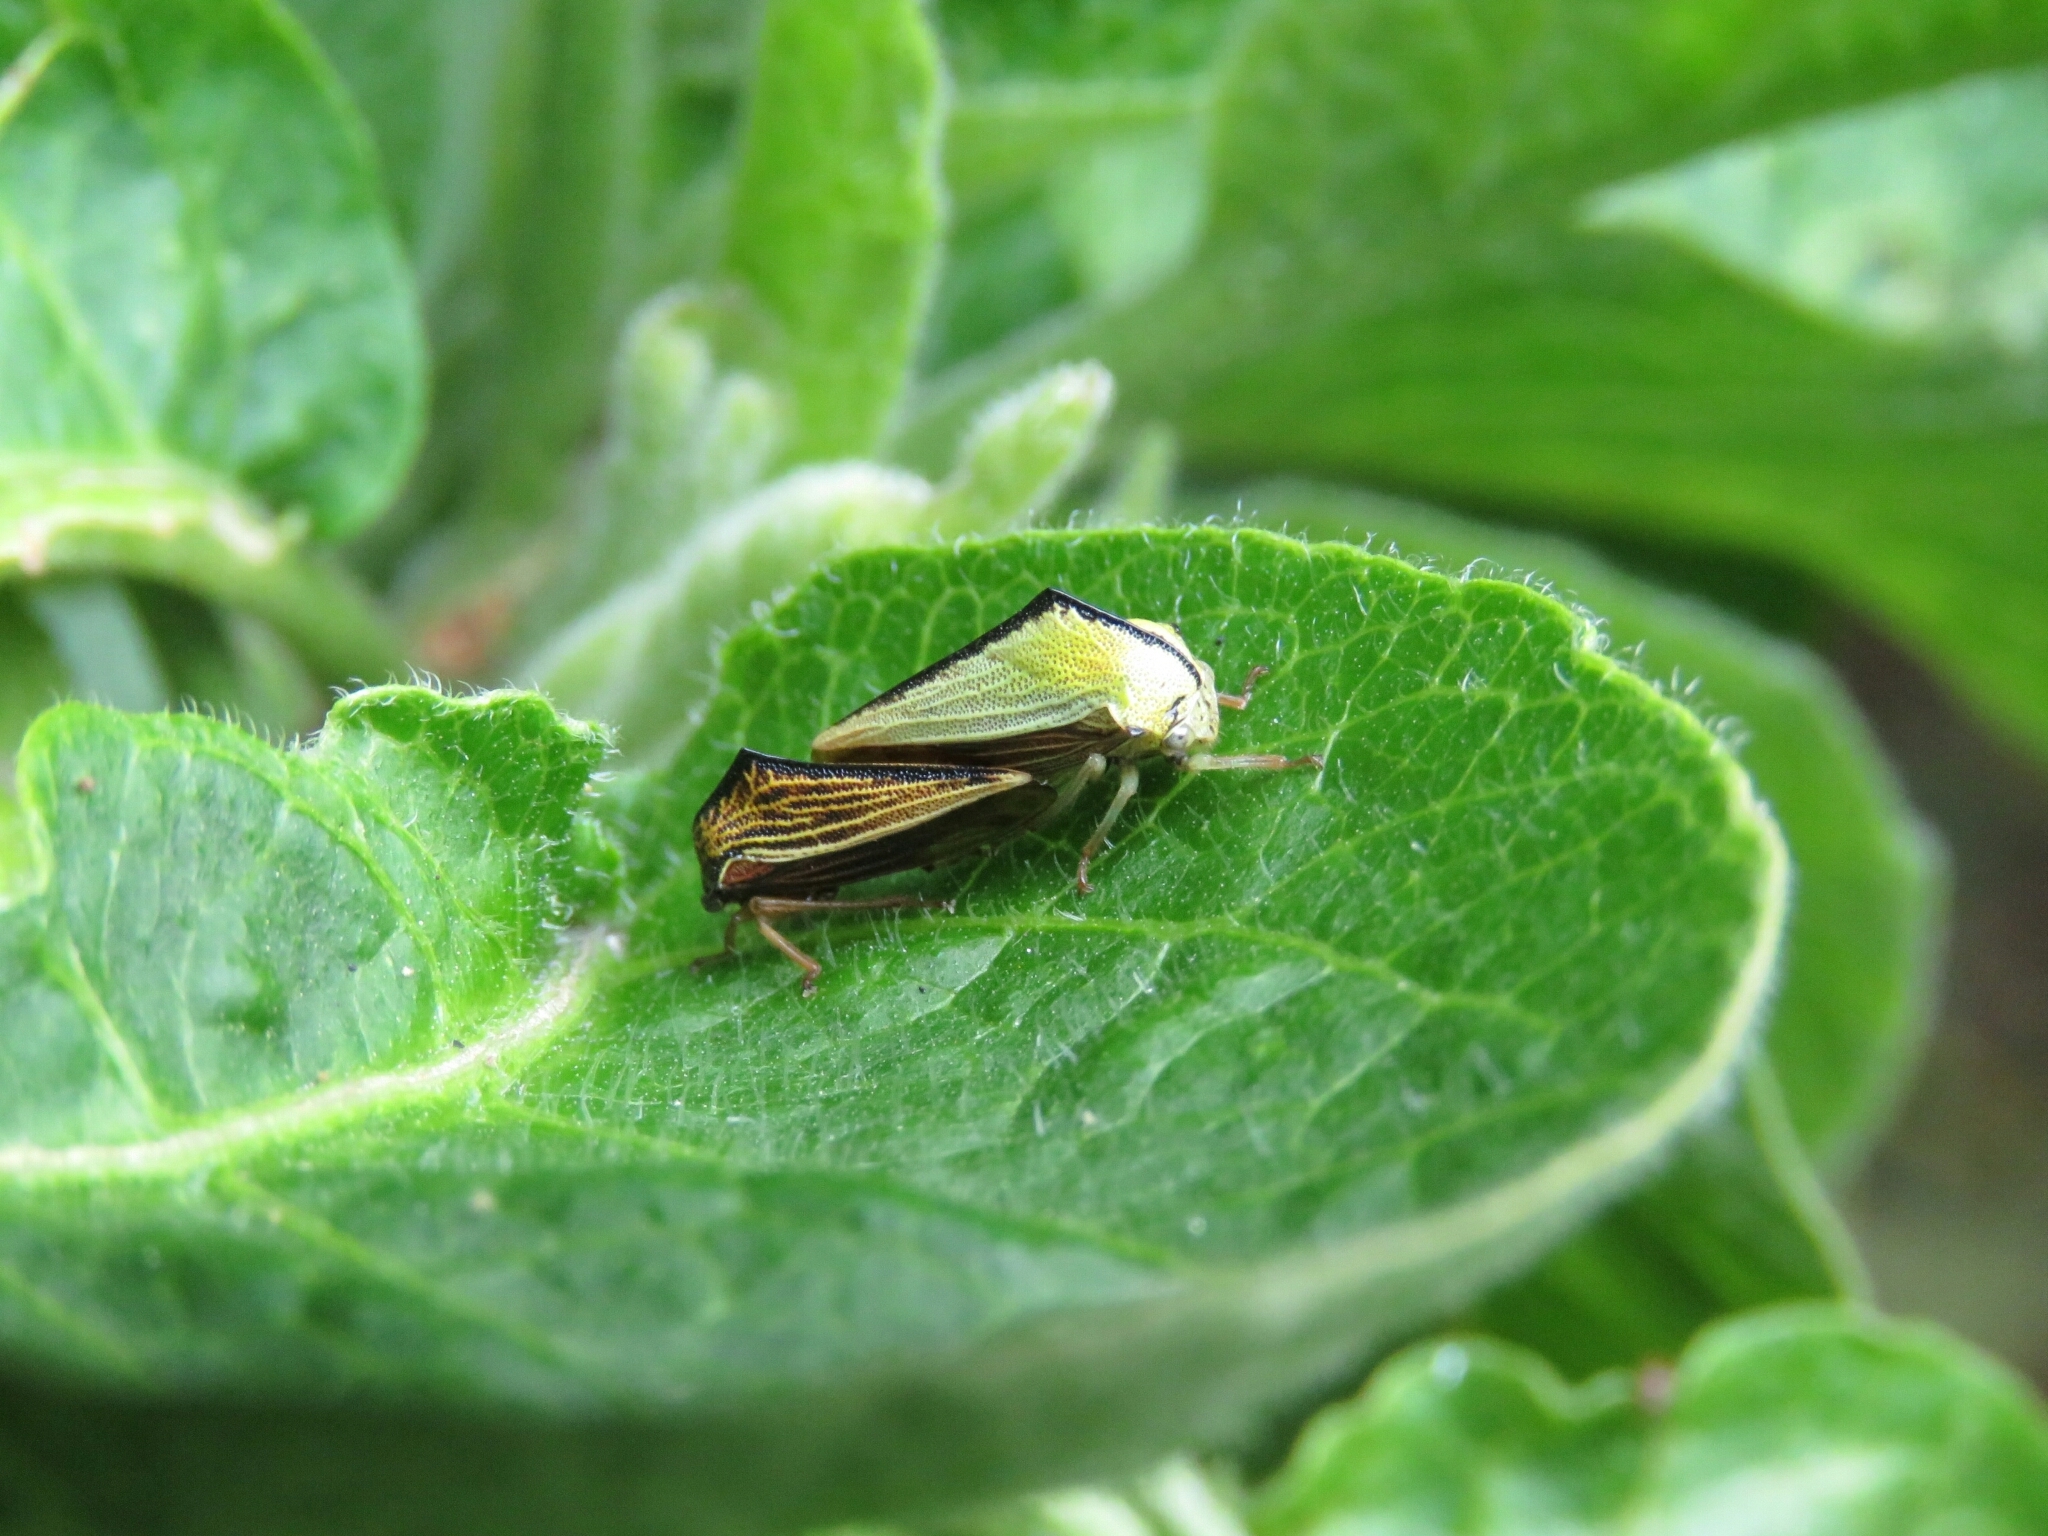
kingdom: Animalia
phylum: Arthropoda
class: Insecta
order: Hemiptera
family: Membracidae
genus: Ennya
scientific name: Ennya sobria
